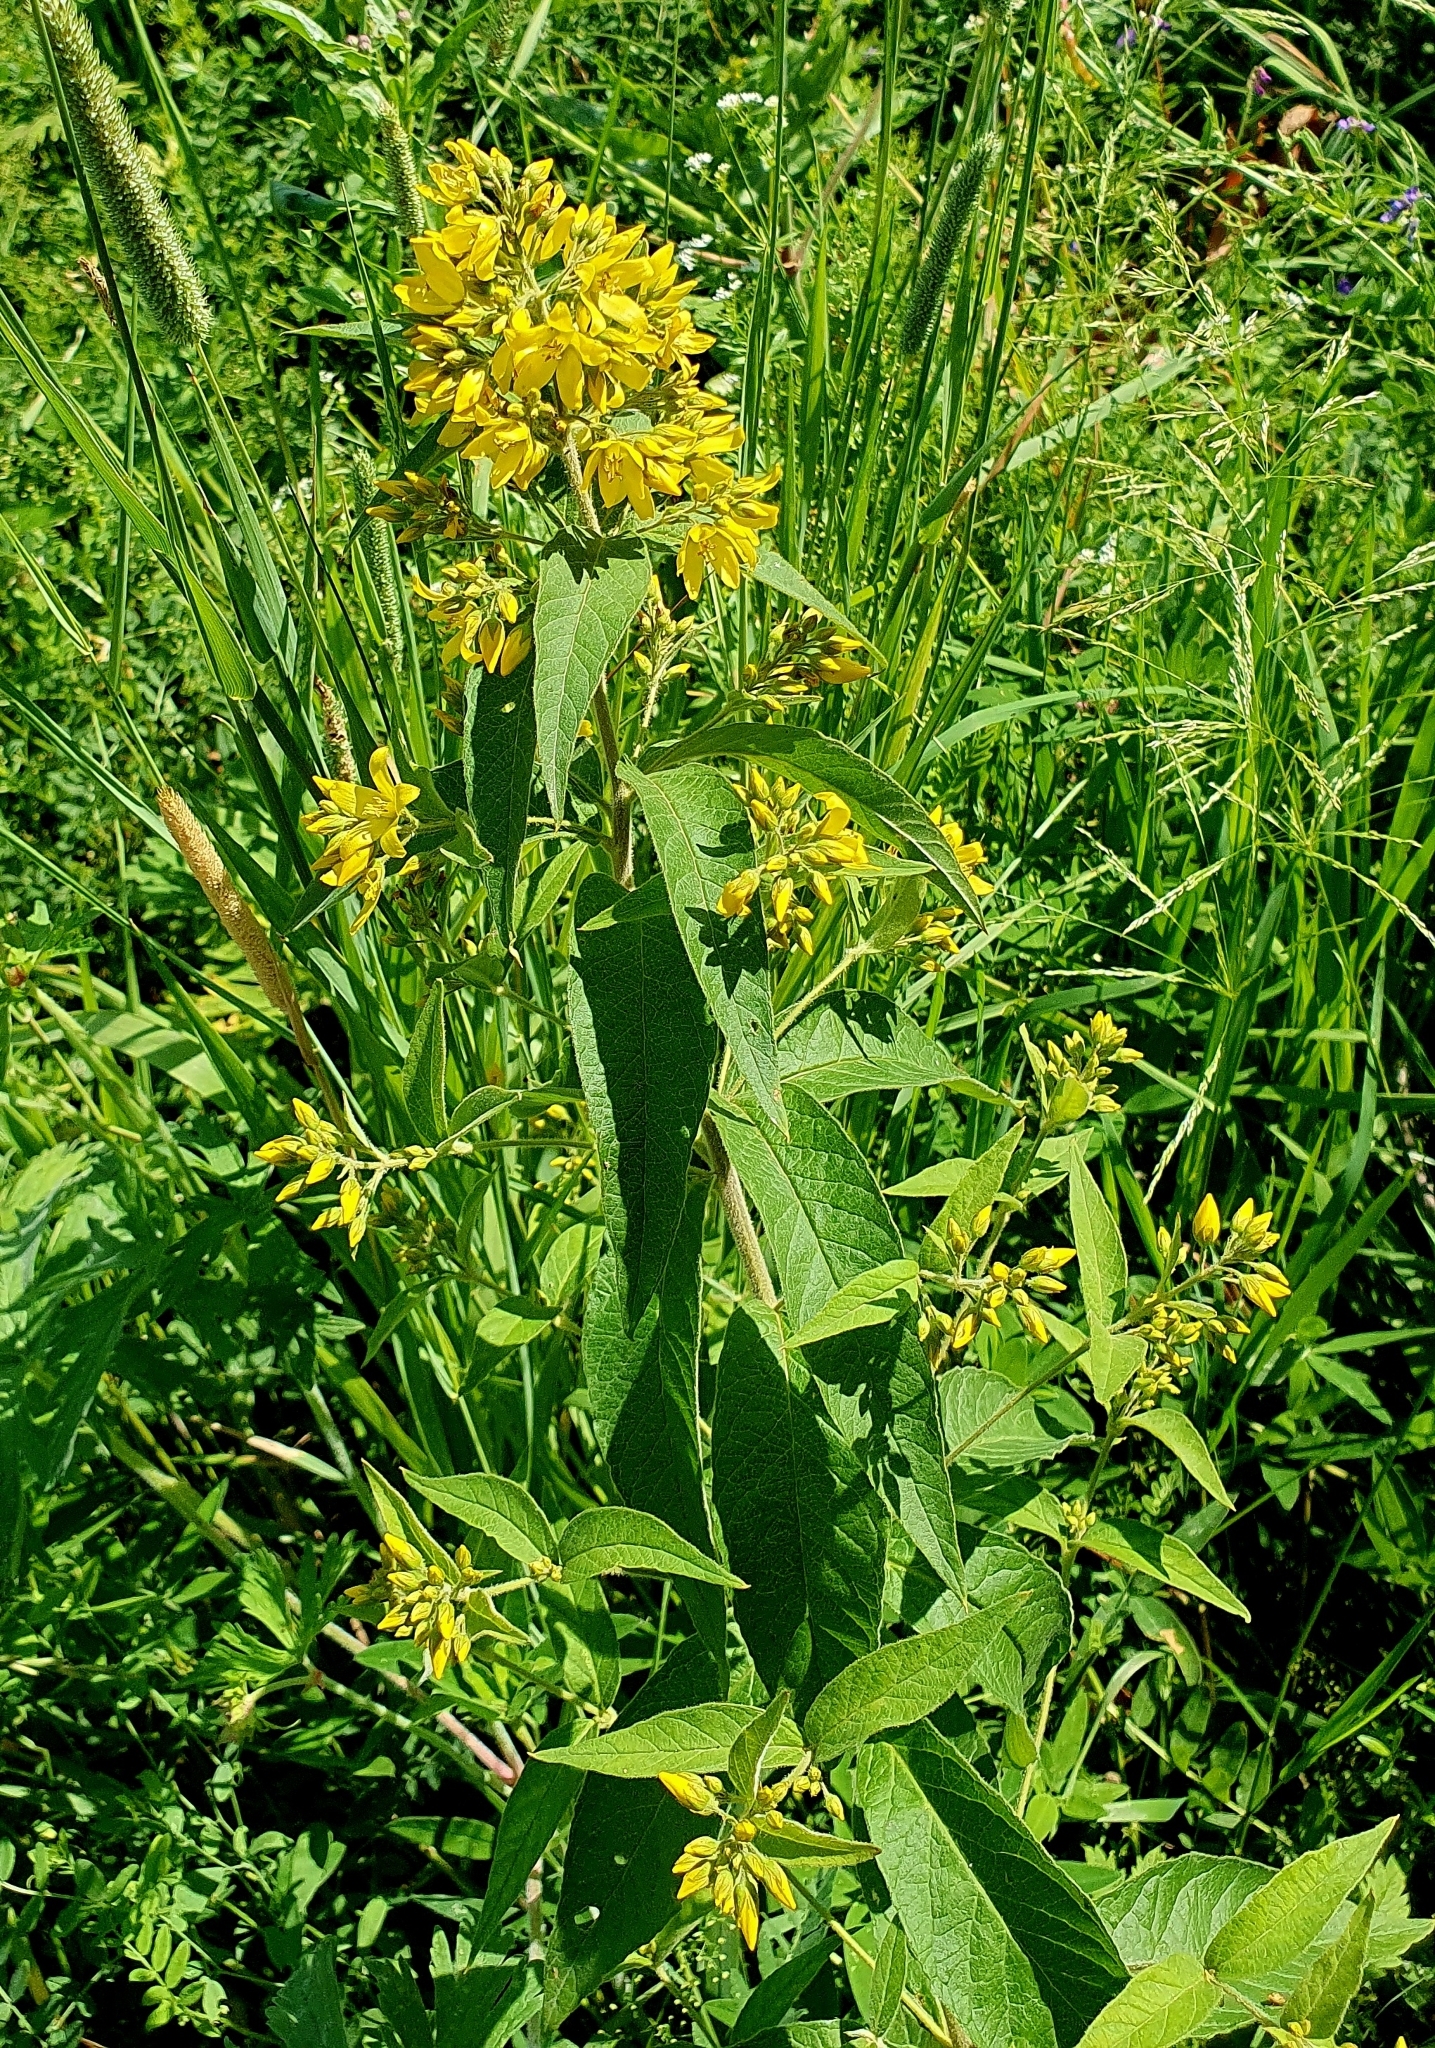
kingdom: Plantae
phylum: Tracheophyta
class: Magnoliopsida
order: Ericales
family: Primulaceae
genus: Lysimachia
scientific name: Lysimachia vulgaris
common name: Yellow loosestrife
